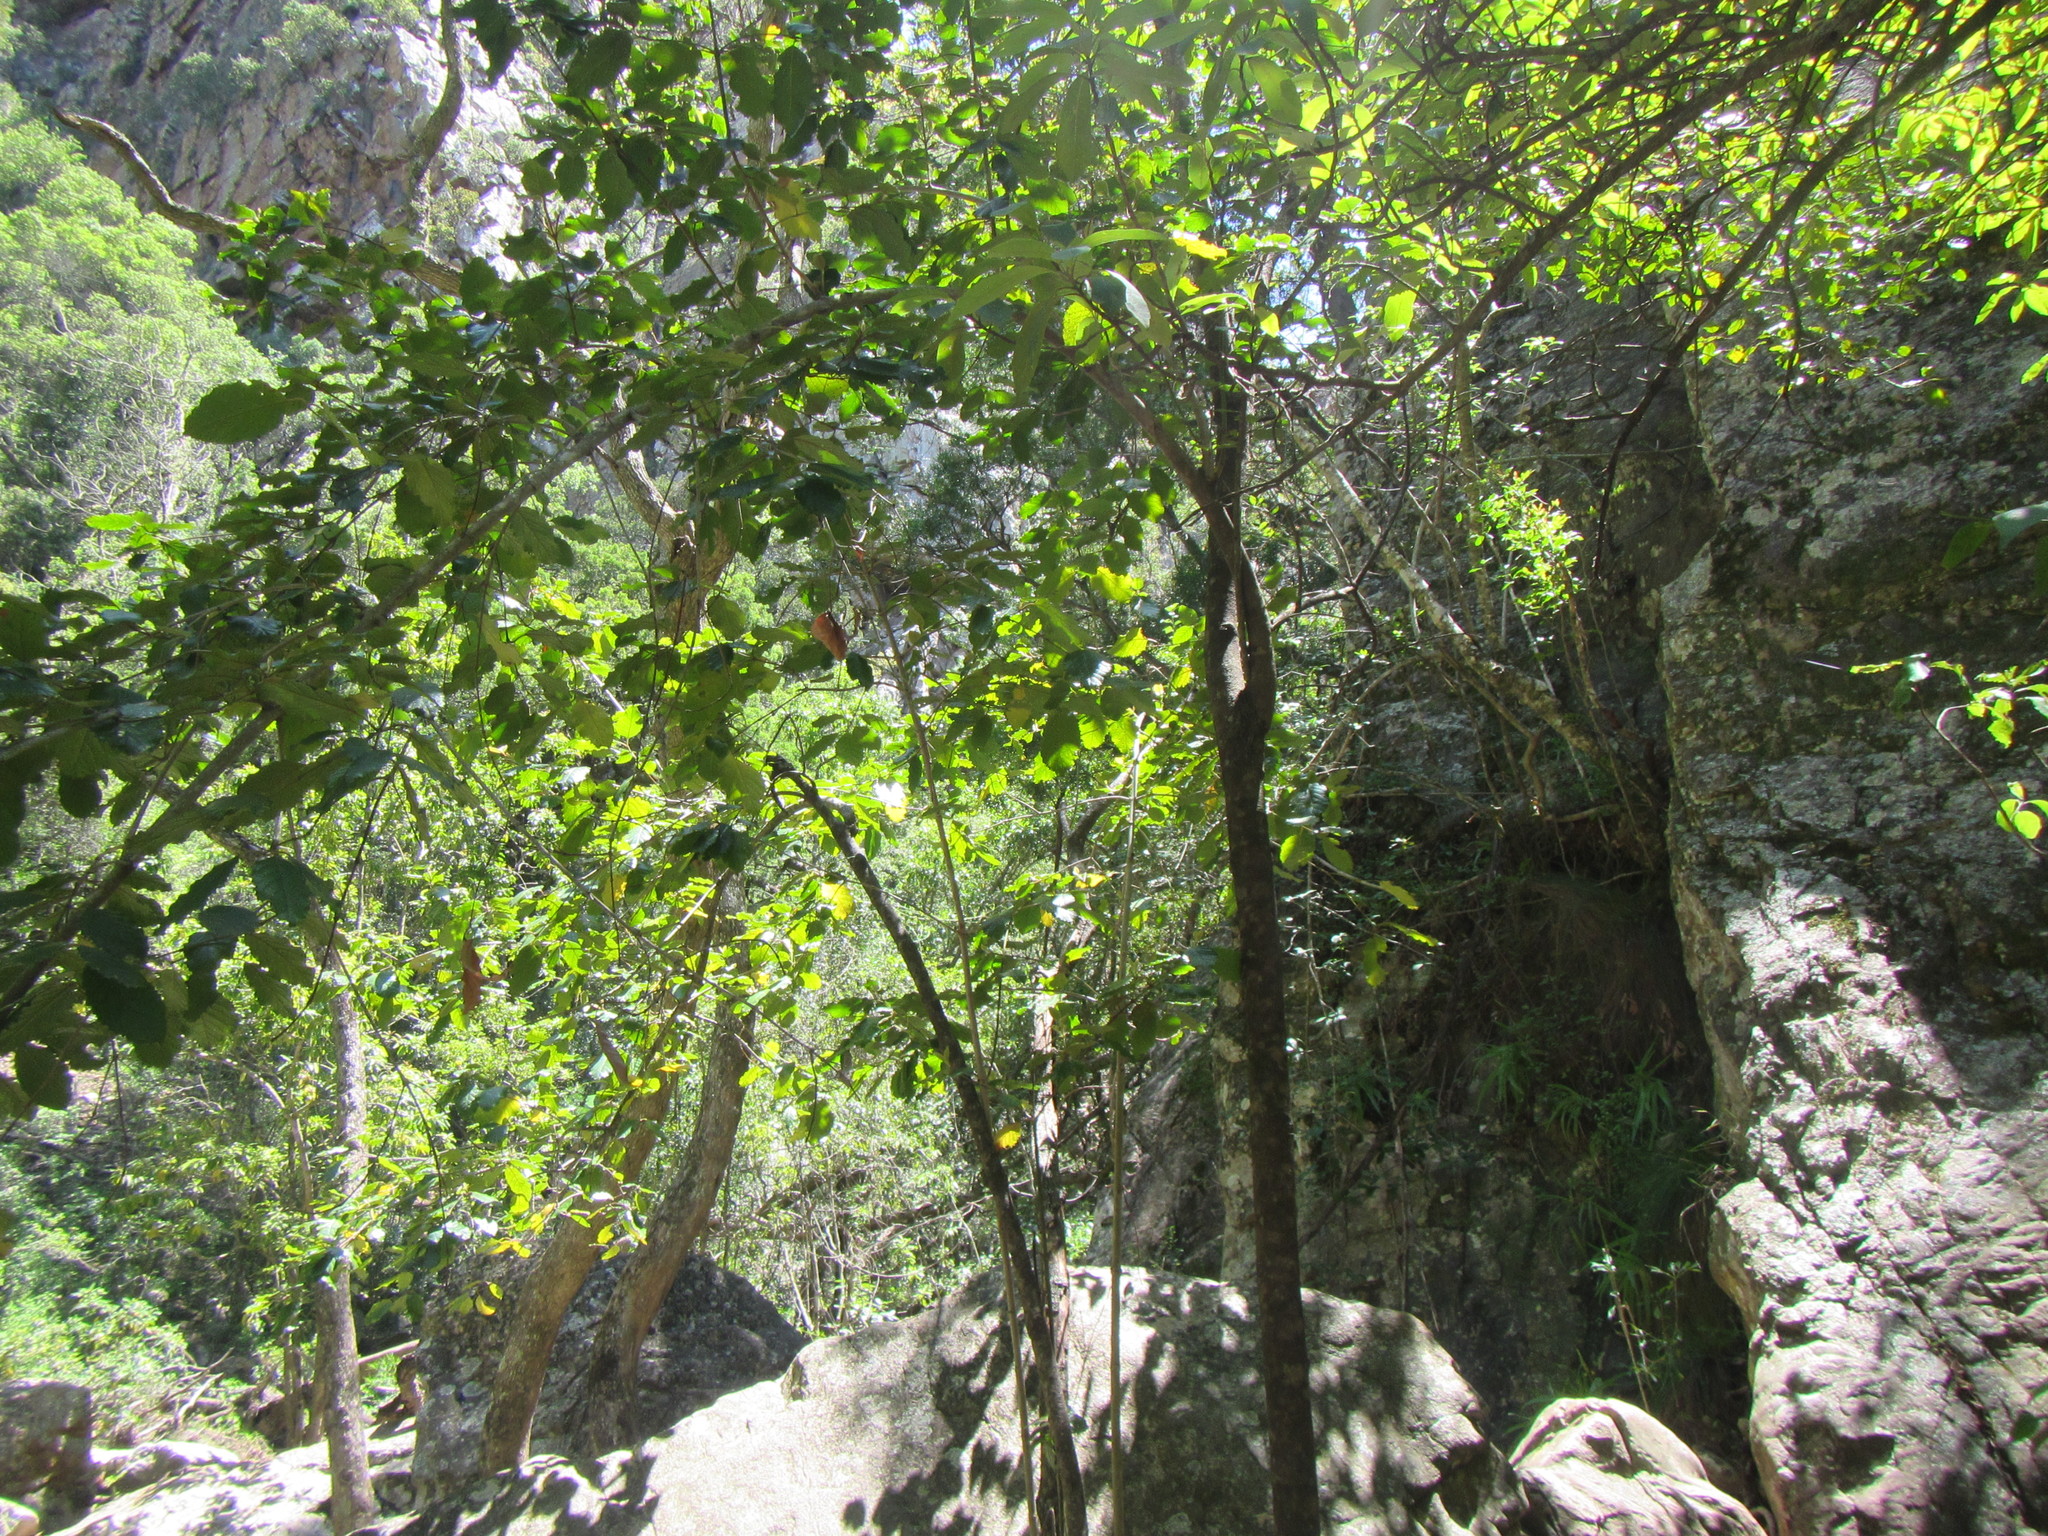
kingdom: Plantae
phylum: Tracheophyta
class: Magnoliopsida
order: Cornales
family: Curtisiaceae
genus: Curtisia
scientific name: Curtisia dentata
